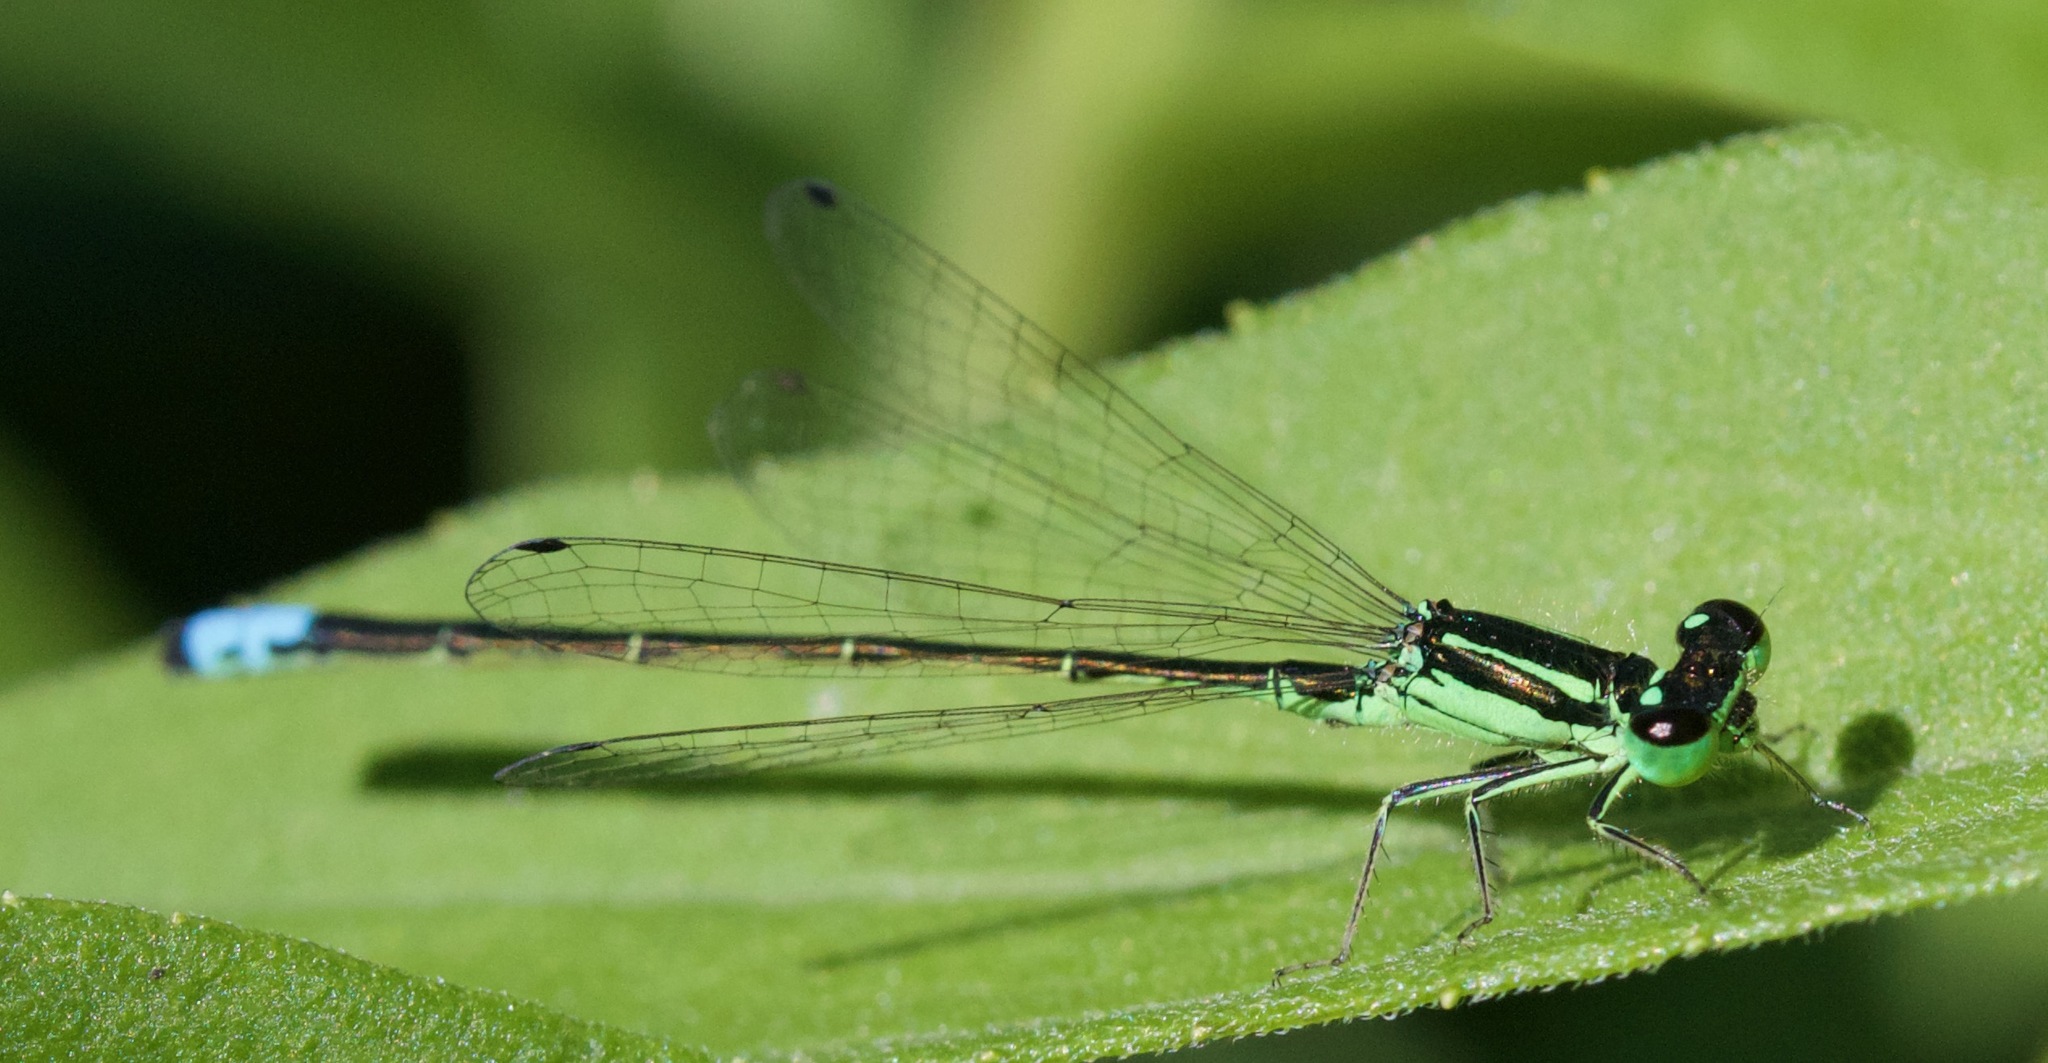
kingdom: Animalia
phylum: Arthropoda
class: Insecta
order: Odonata
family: Coenagrionidae
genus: Ischnura
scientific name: Ischnura verticalis
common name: Eastern forktail
